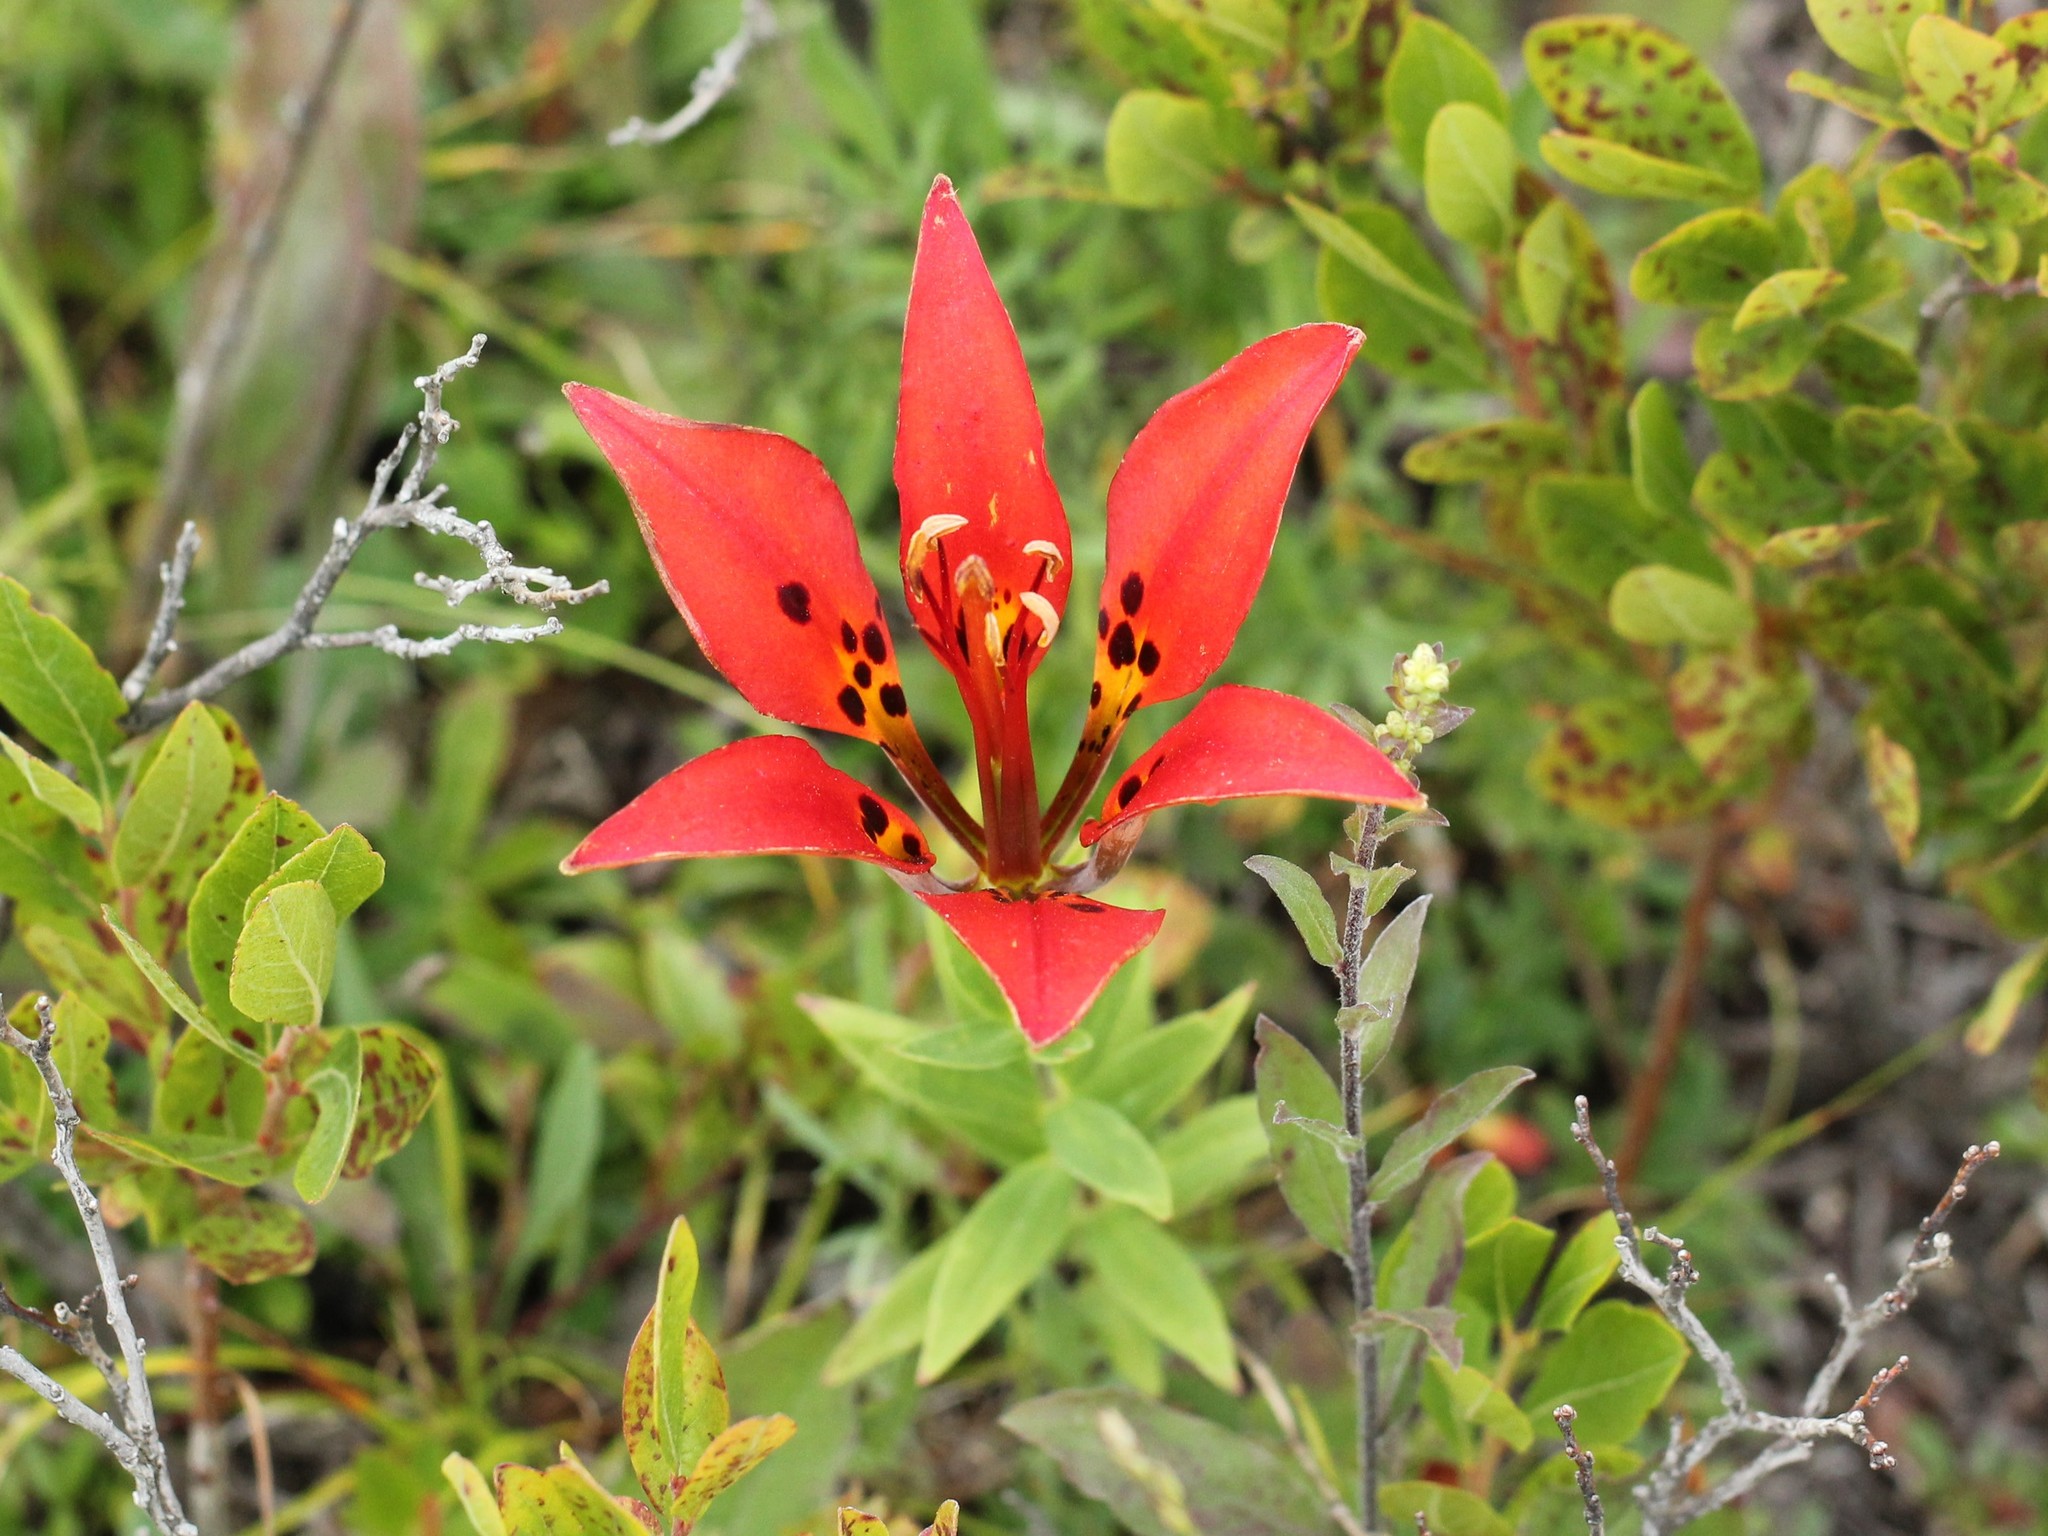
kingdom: Plantae
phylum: Tracheophyta
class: Liliopsida
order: Liliales
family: Liliaceae
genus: Lilium
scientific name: Lilium philadelphicum
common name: Red lily
